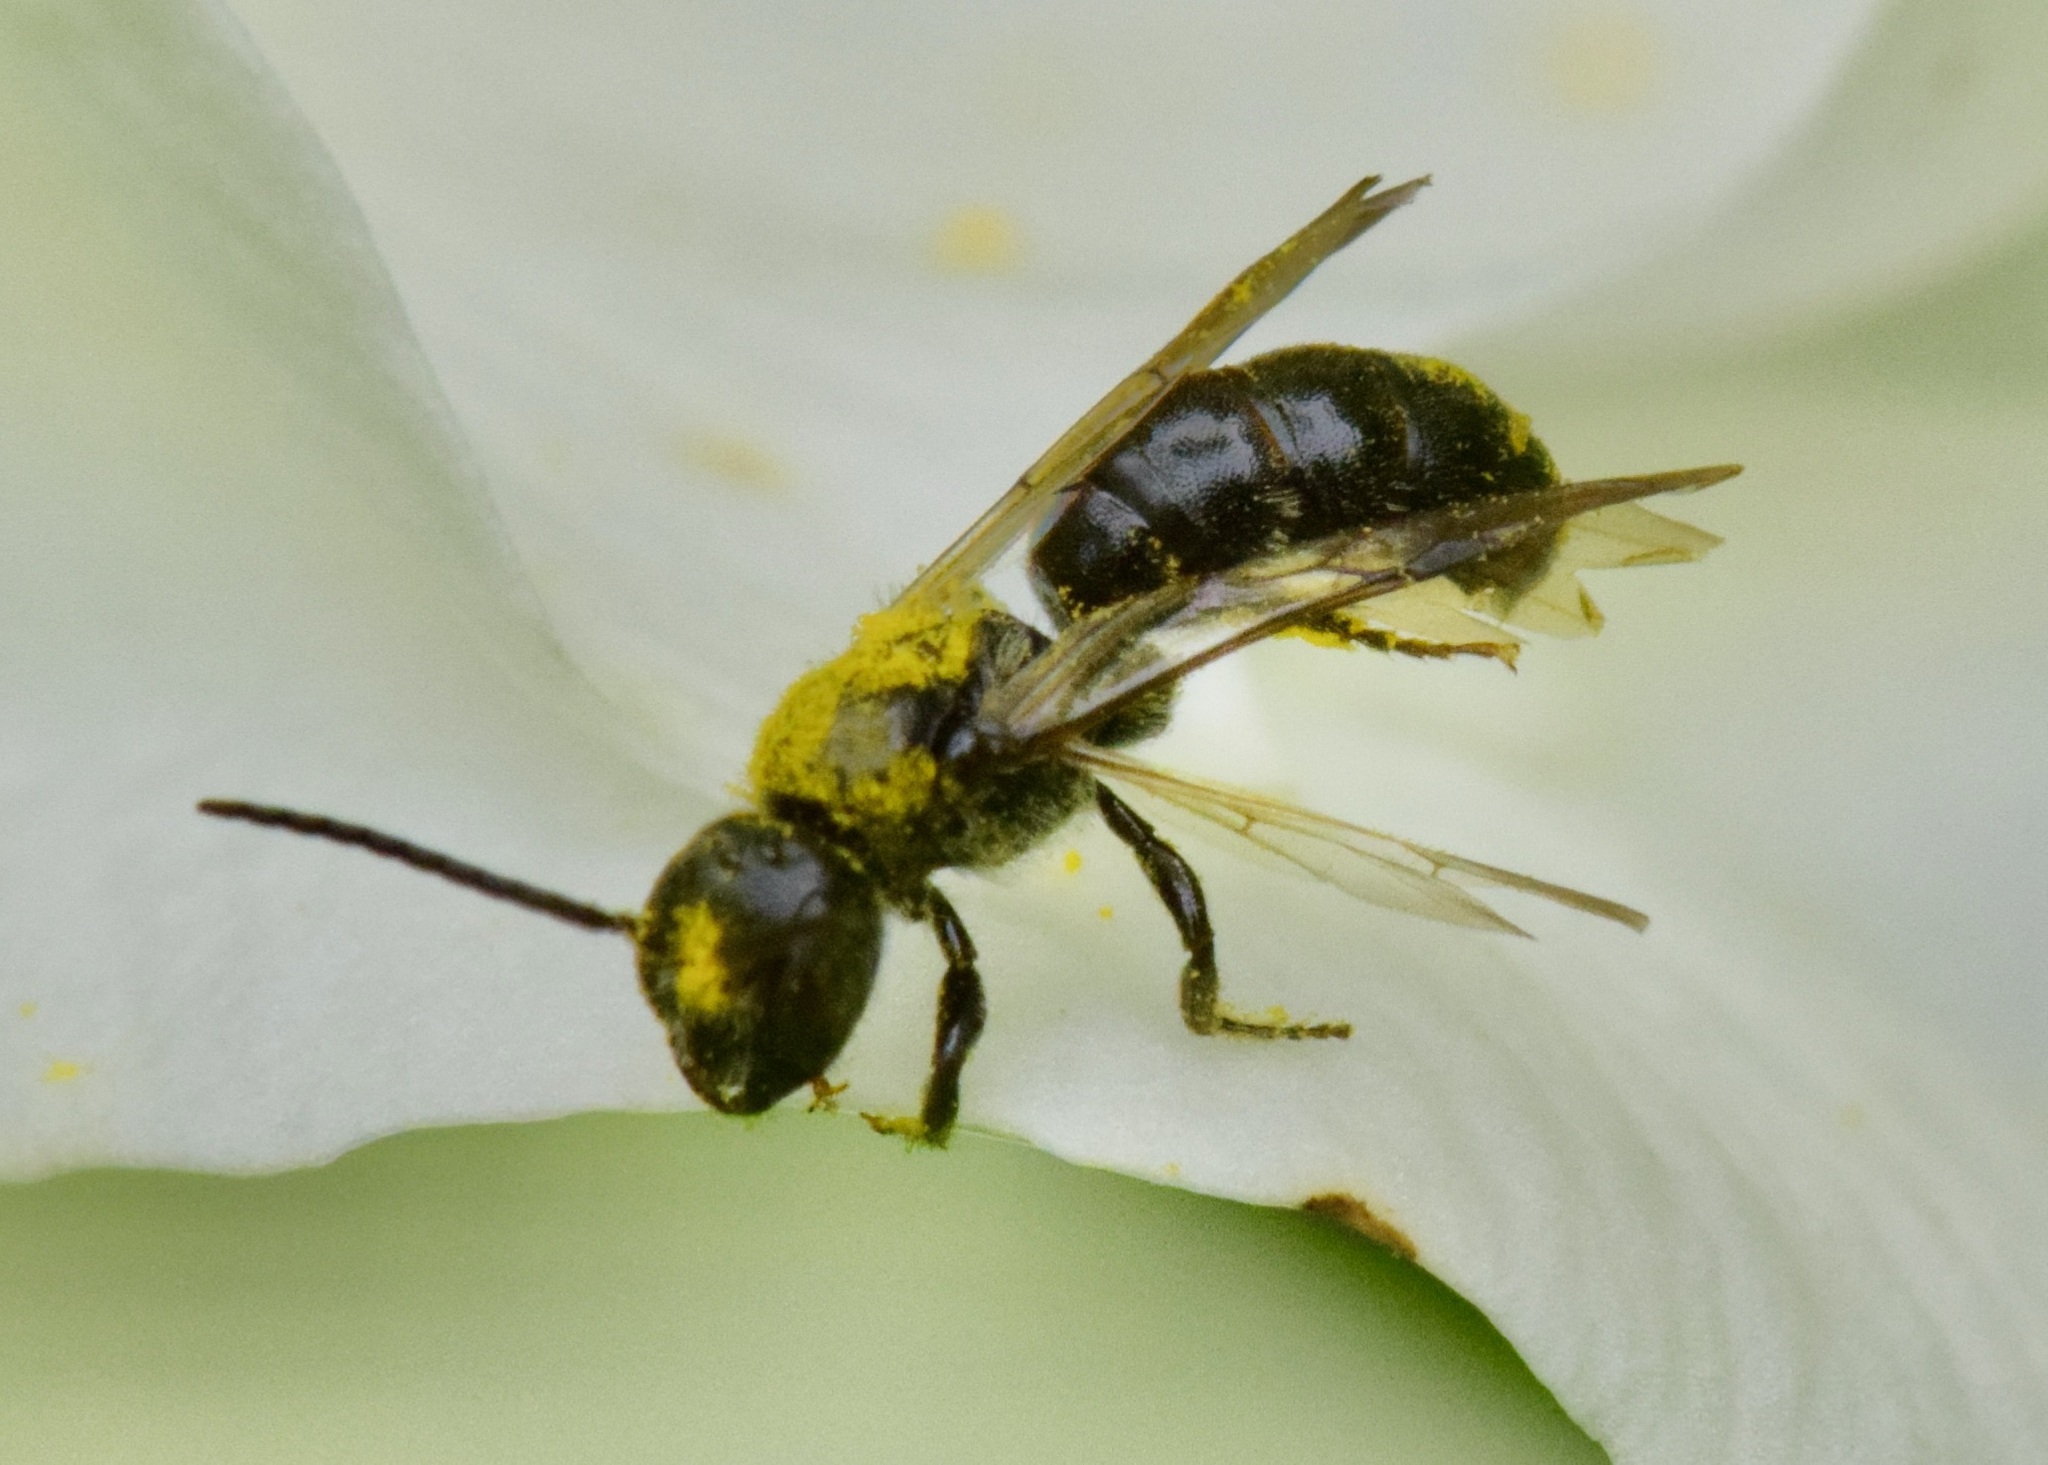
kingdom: Animalia
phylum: Arthropoda
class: Insecta
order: Hymenoptera
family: Megachilidae
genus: Chelostoma
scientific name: Chelostoma philadelphi
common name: Mock-orange scissor bee
